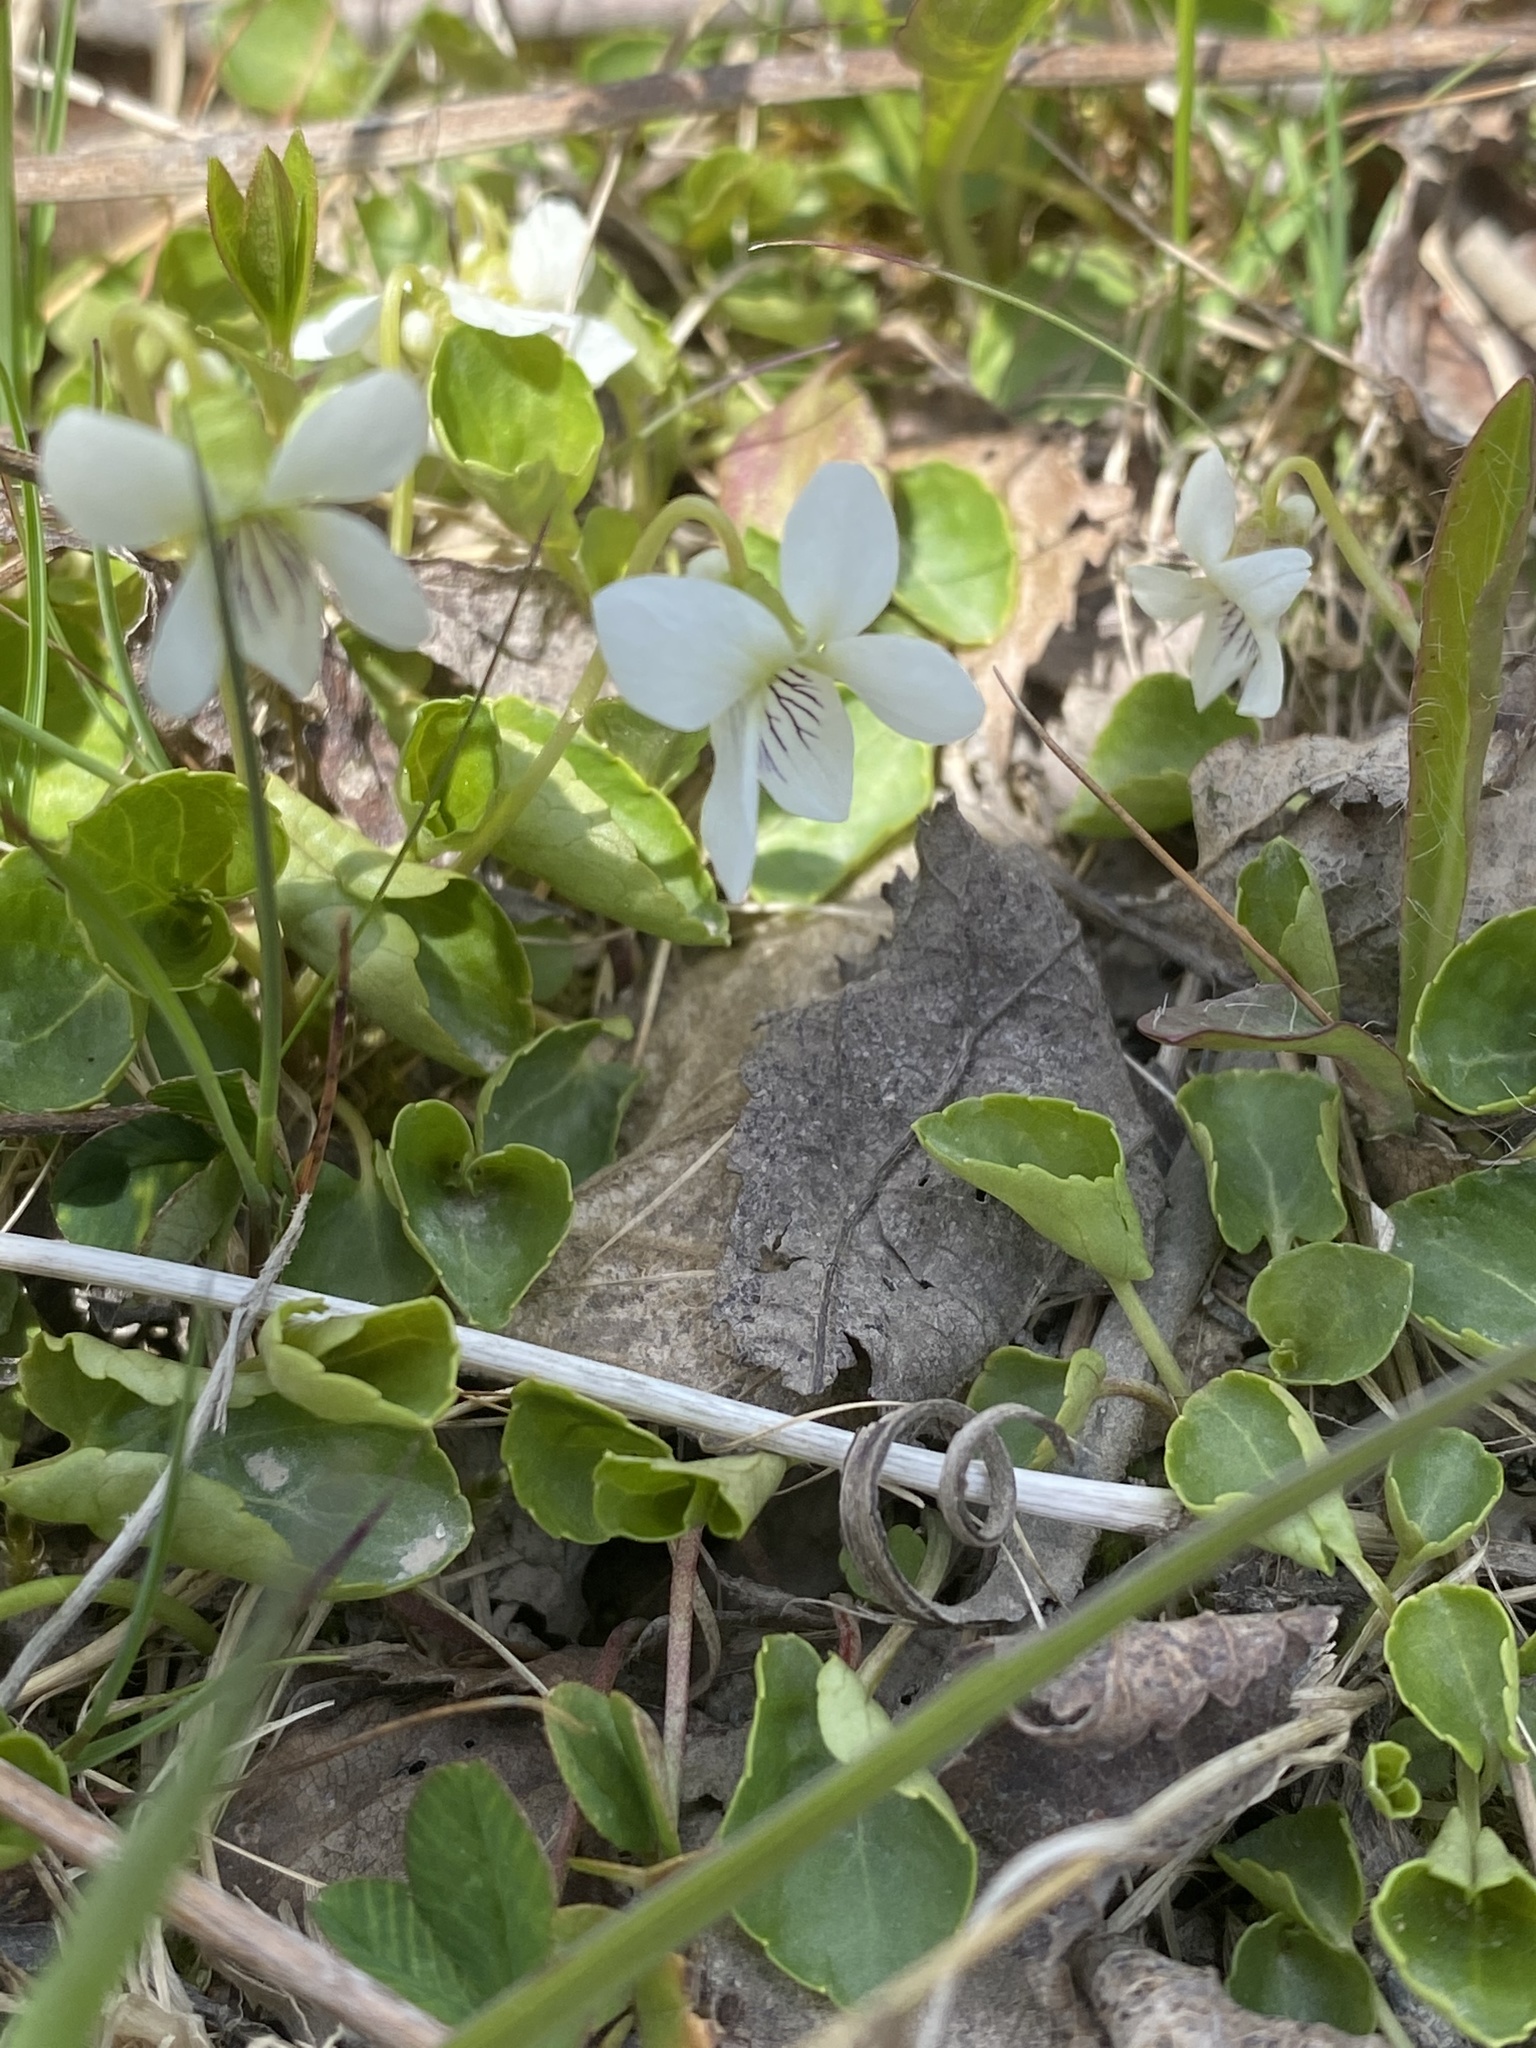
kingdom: Plantae
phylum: Tracheophyta
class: Magnoliopsida
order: Malpighiales
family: Violaceae
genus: Viola
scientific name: Viola minuscula
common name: Northern white violet
